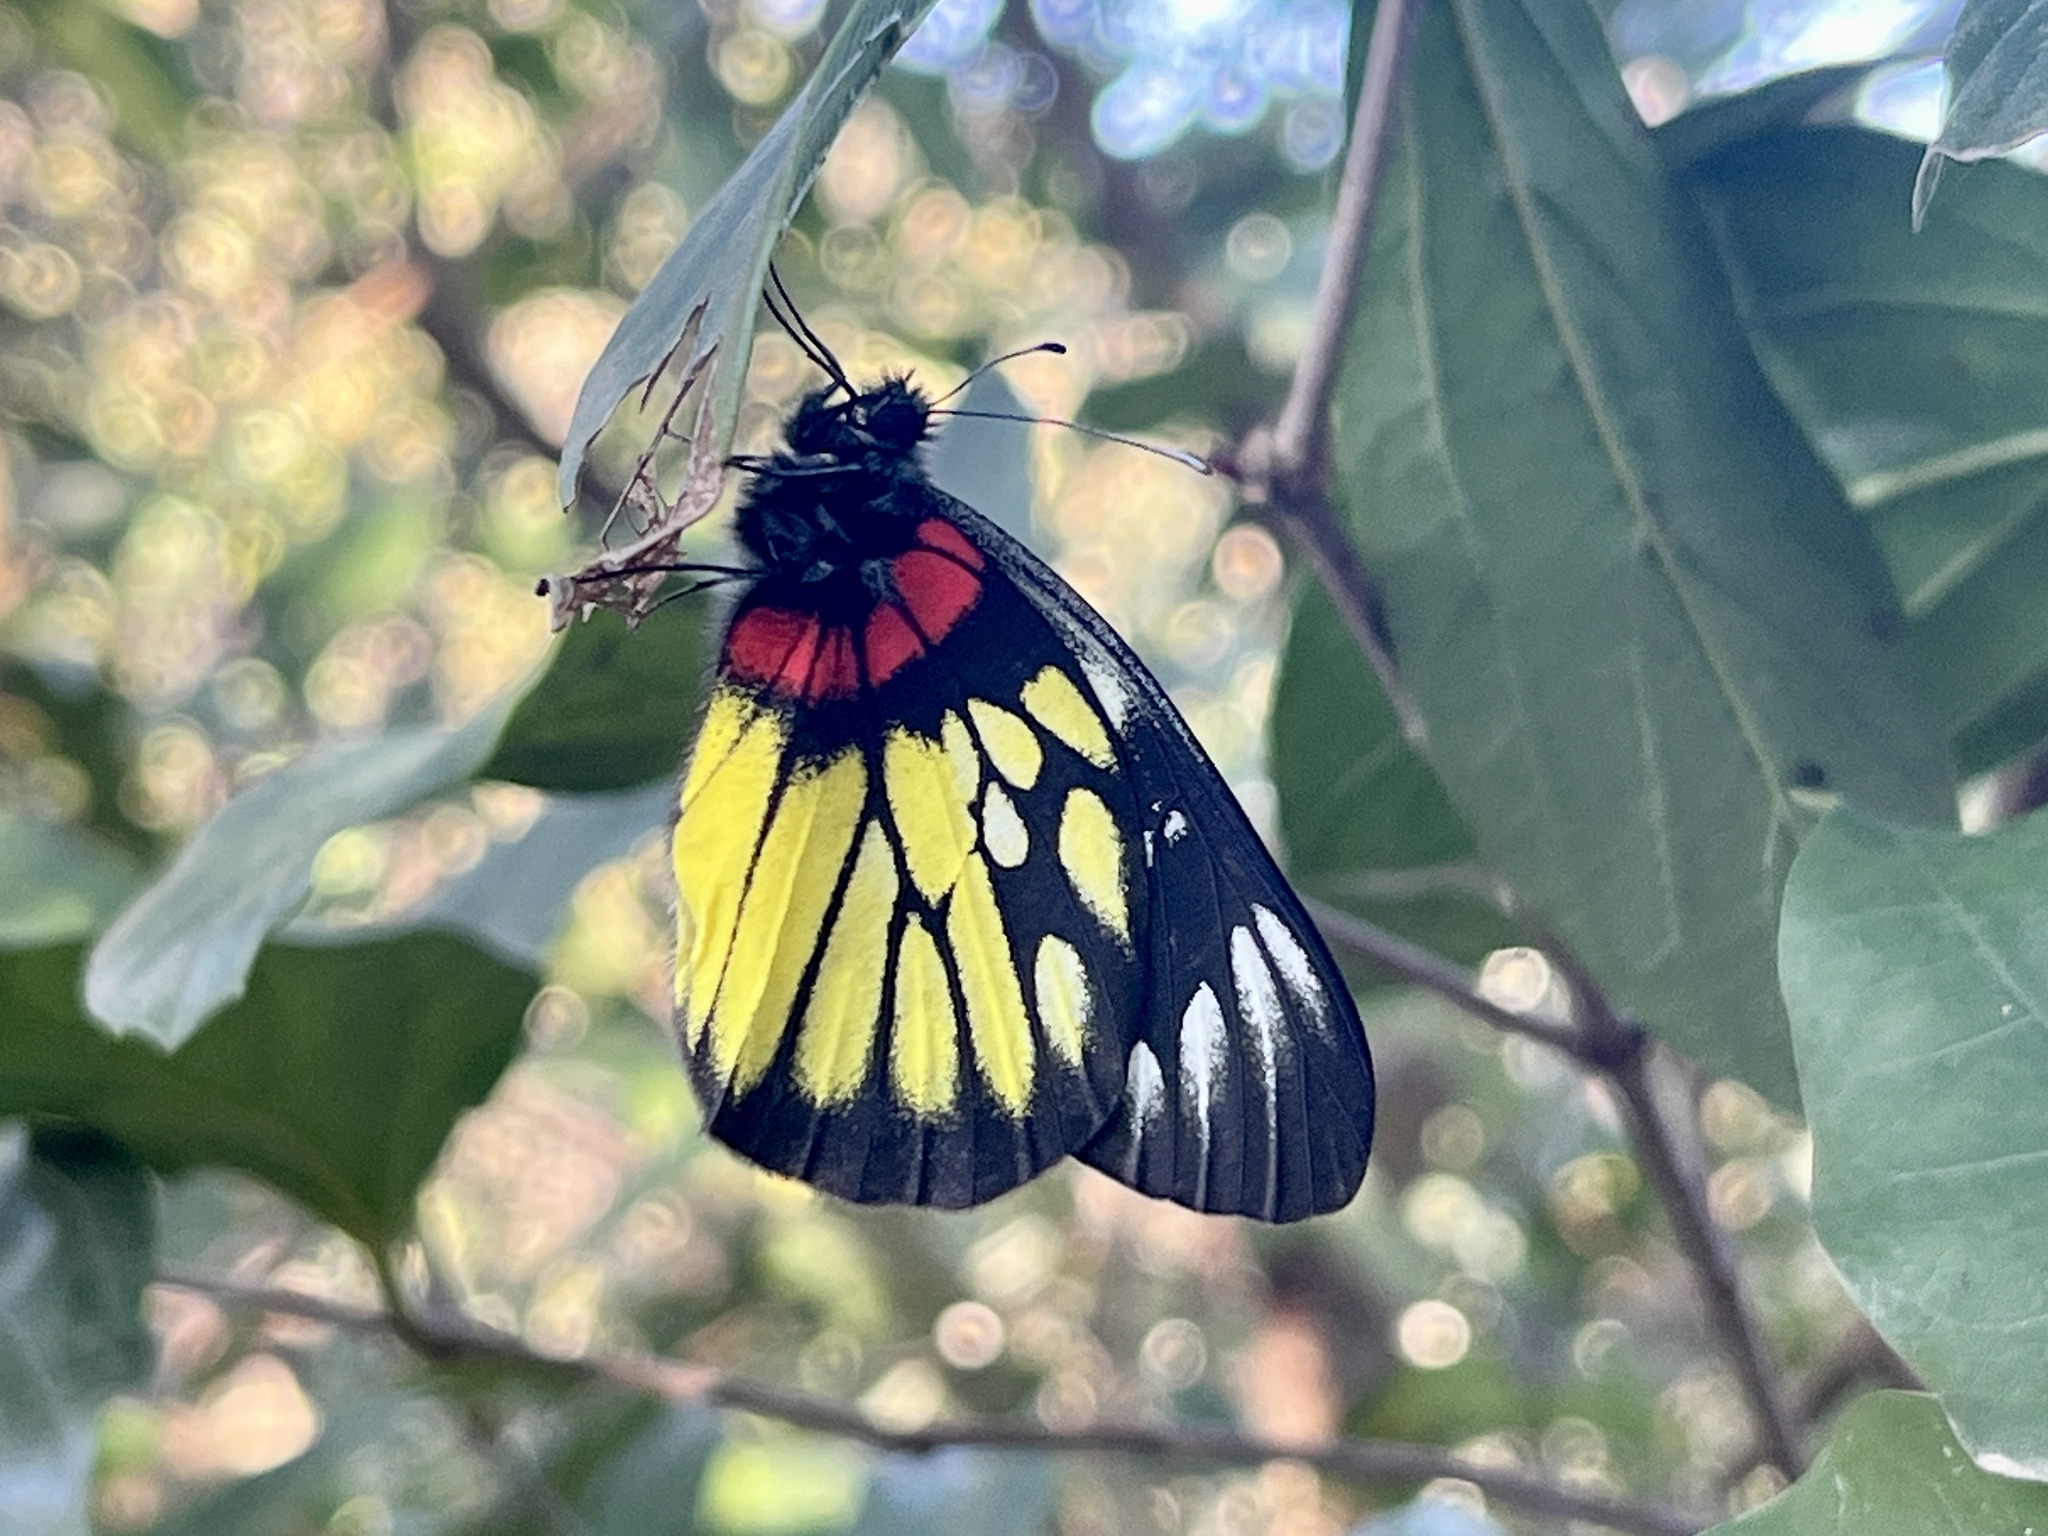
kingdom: Animalia
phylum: Arthropoda
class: Insecta
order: Lepidoptera
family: Pieridae
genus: Delias
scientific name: Delias pasithoe
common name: Red-base jezebel
